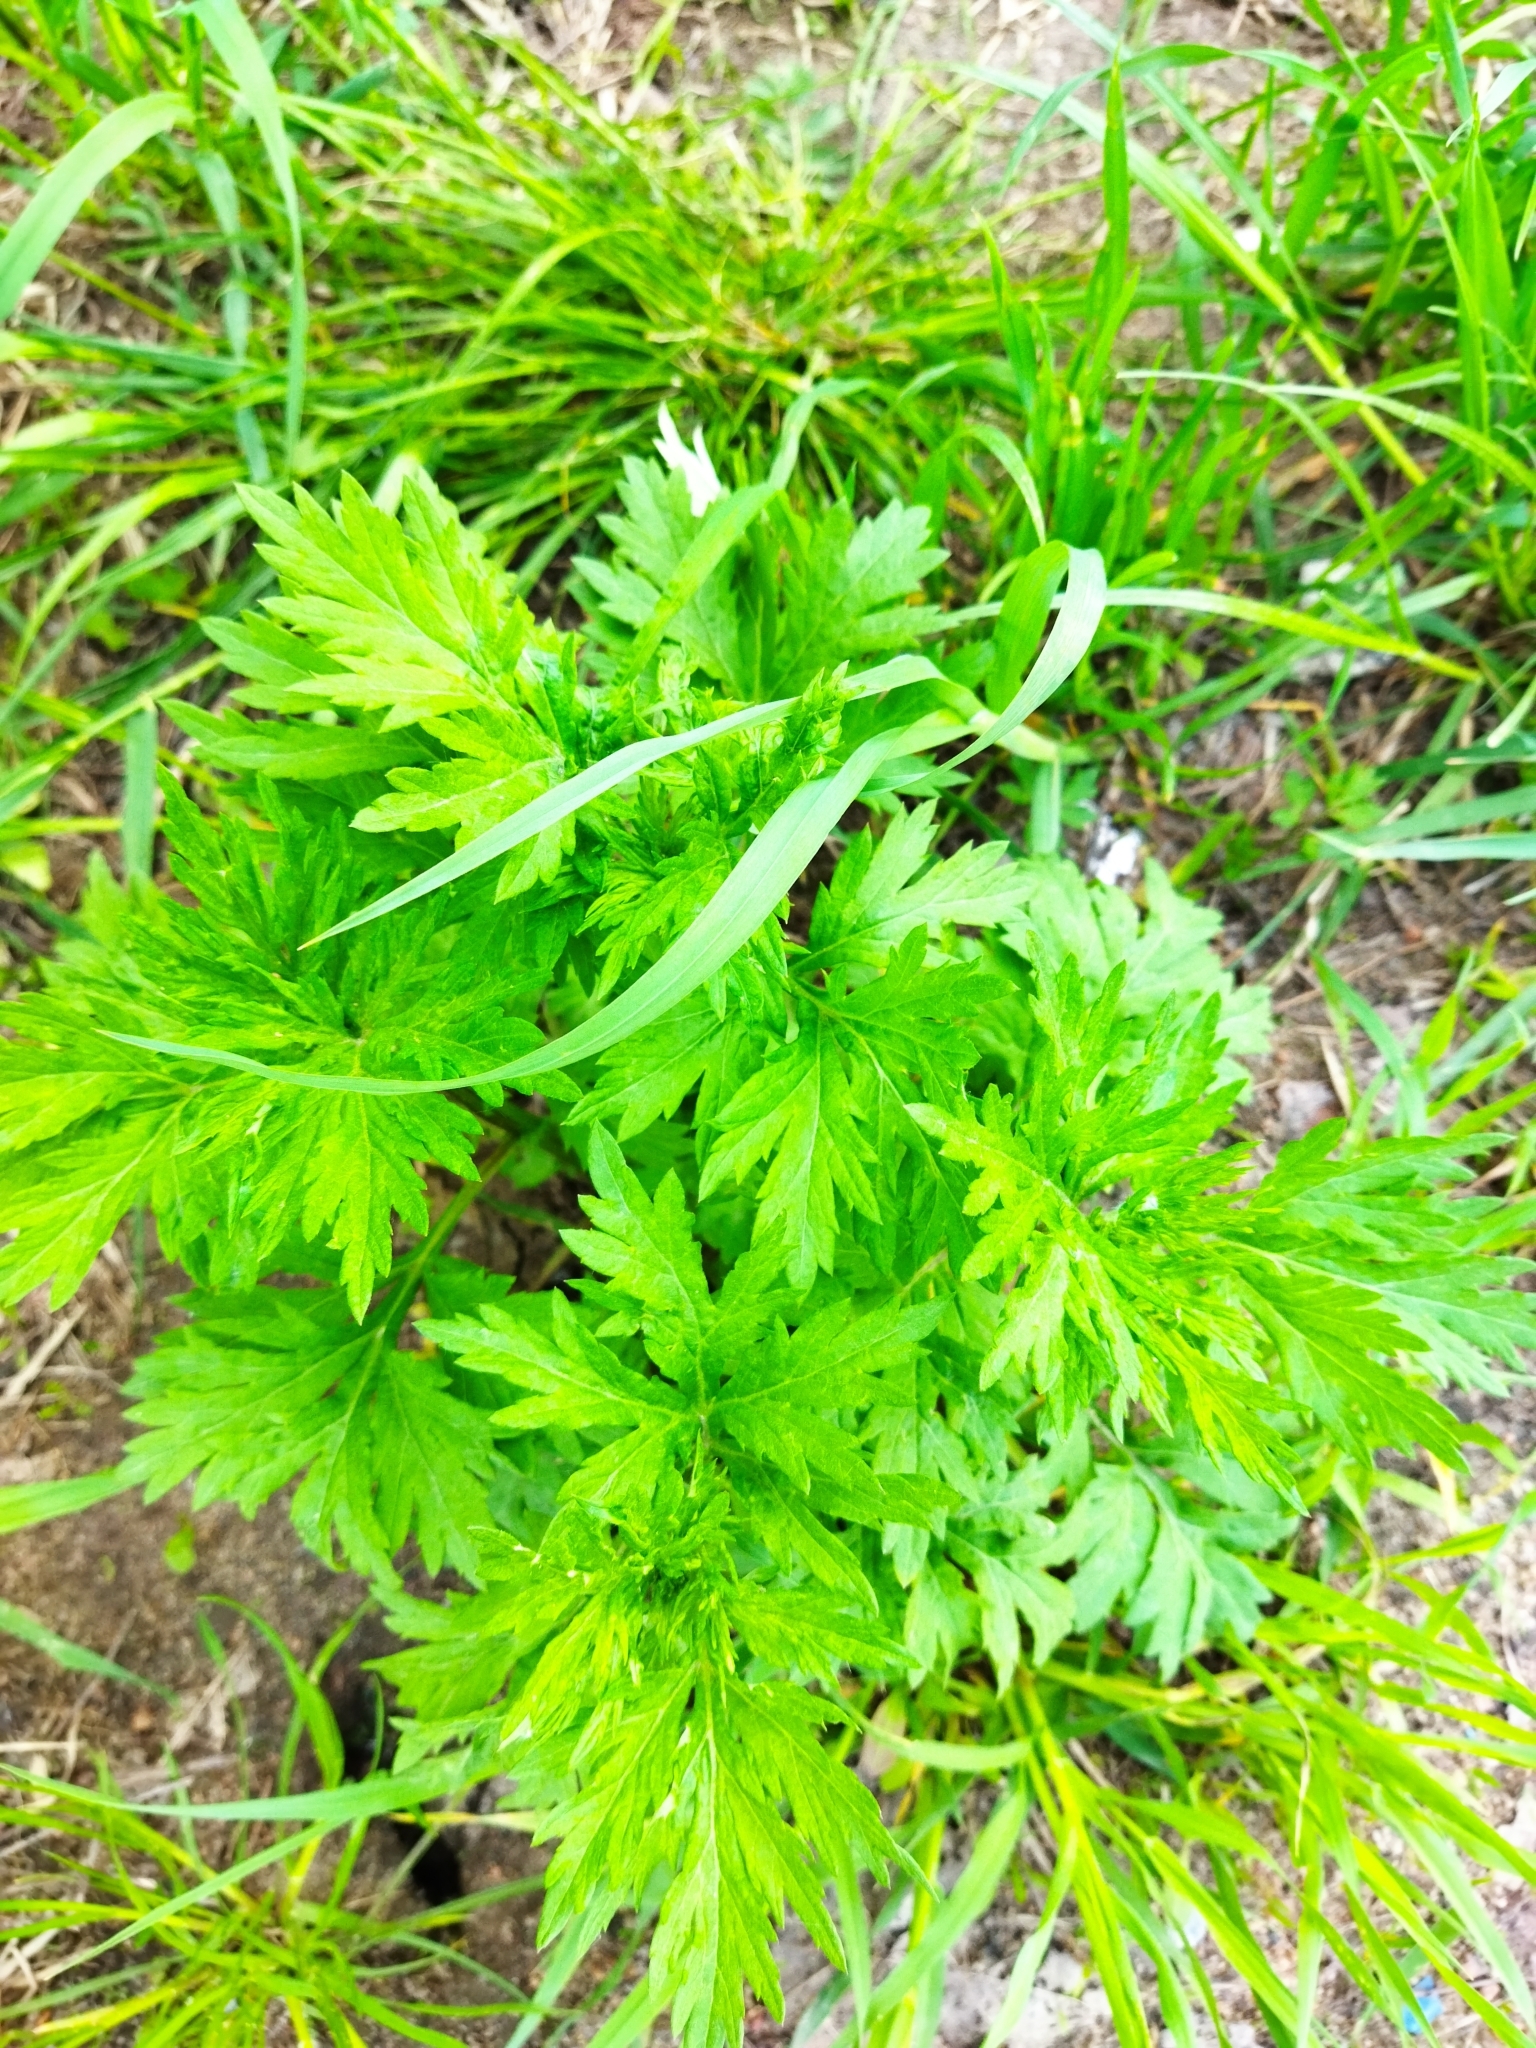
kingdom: Plantae
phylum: Tracheophyta
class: Magnoliopsida
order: Asterales
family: Asteraceae
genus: Artemisia
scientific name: Artemisia vulgaris
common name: Mugwort
